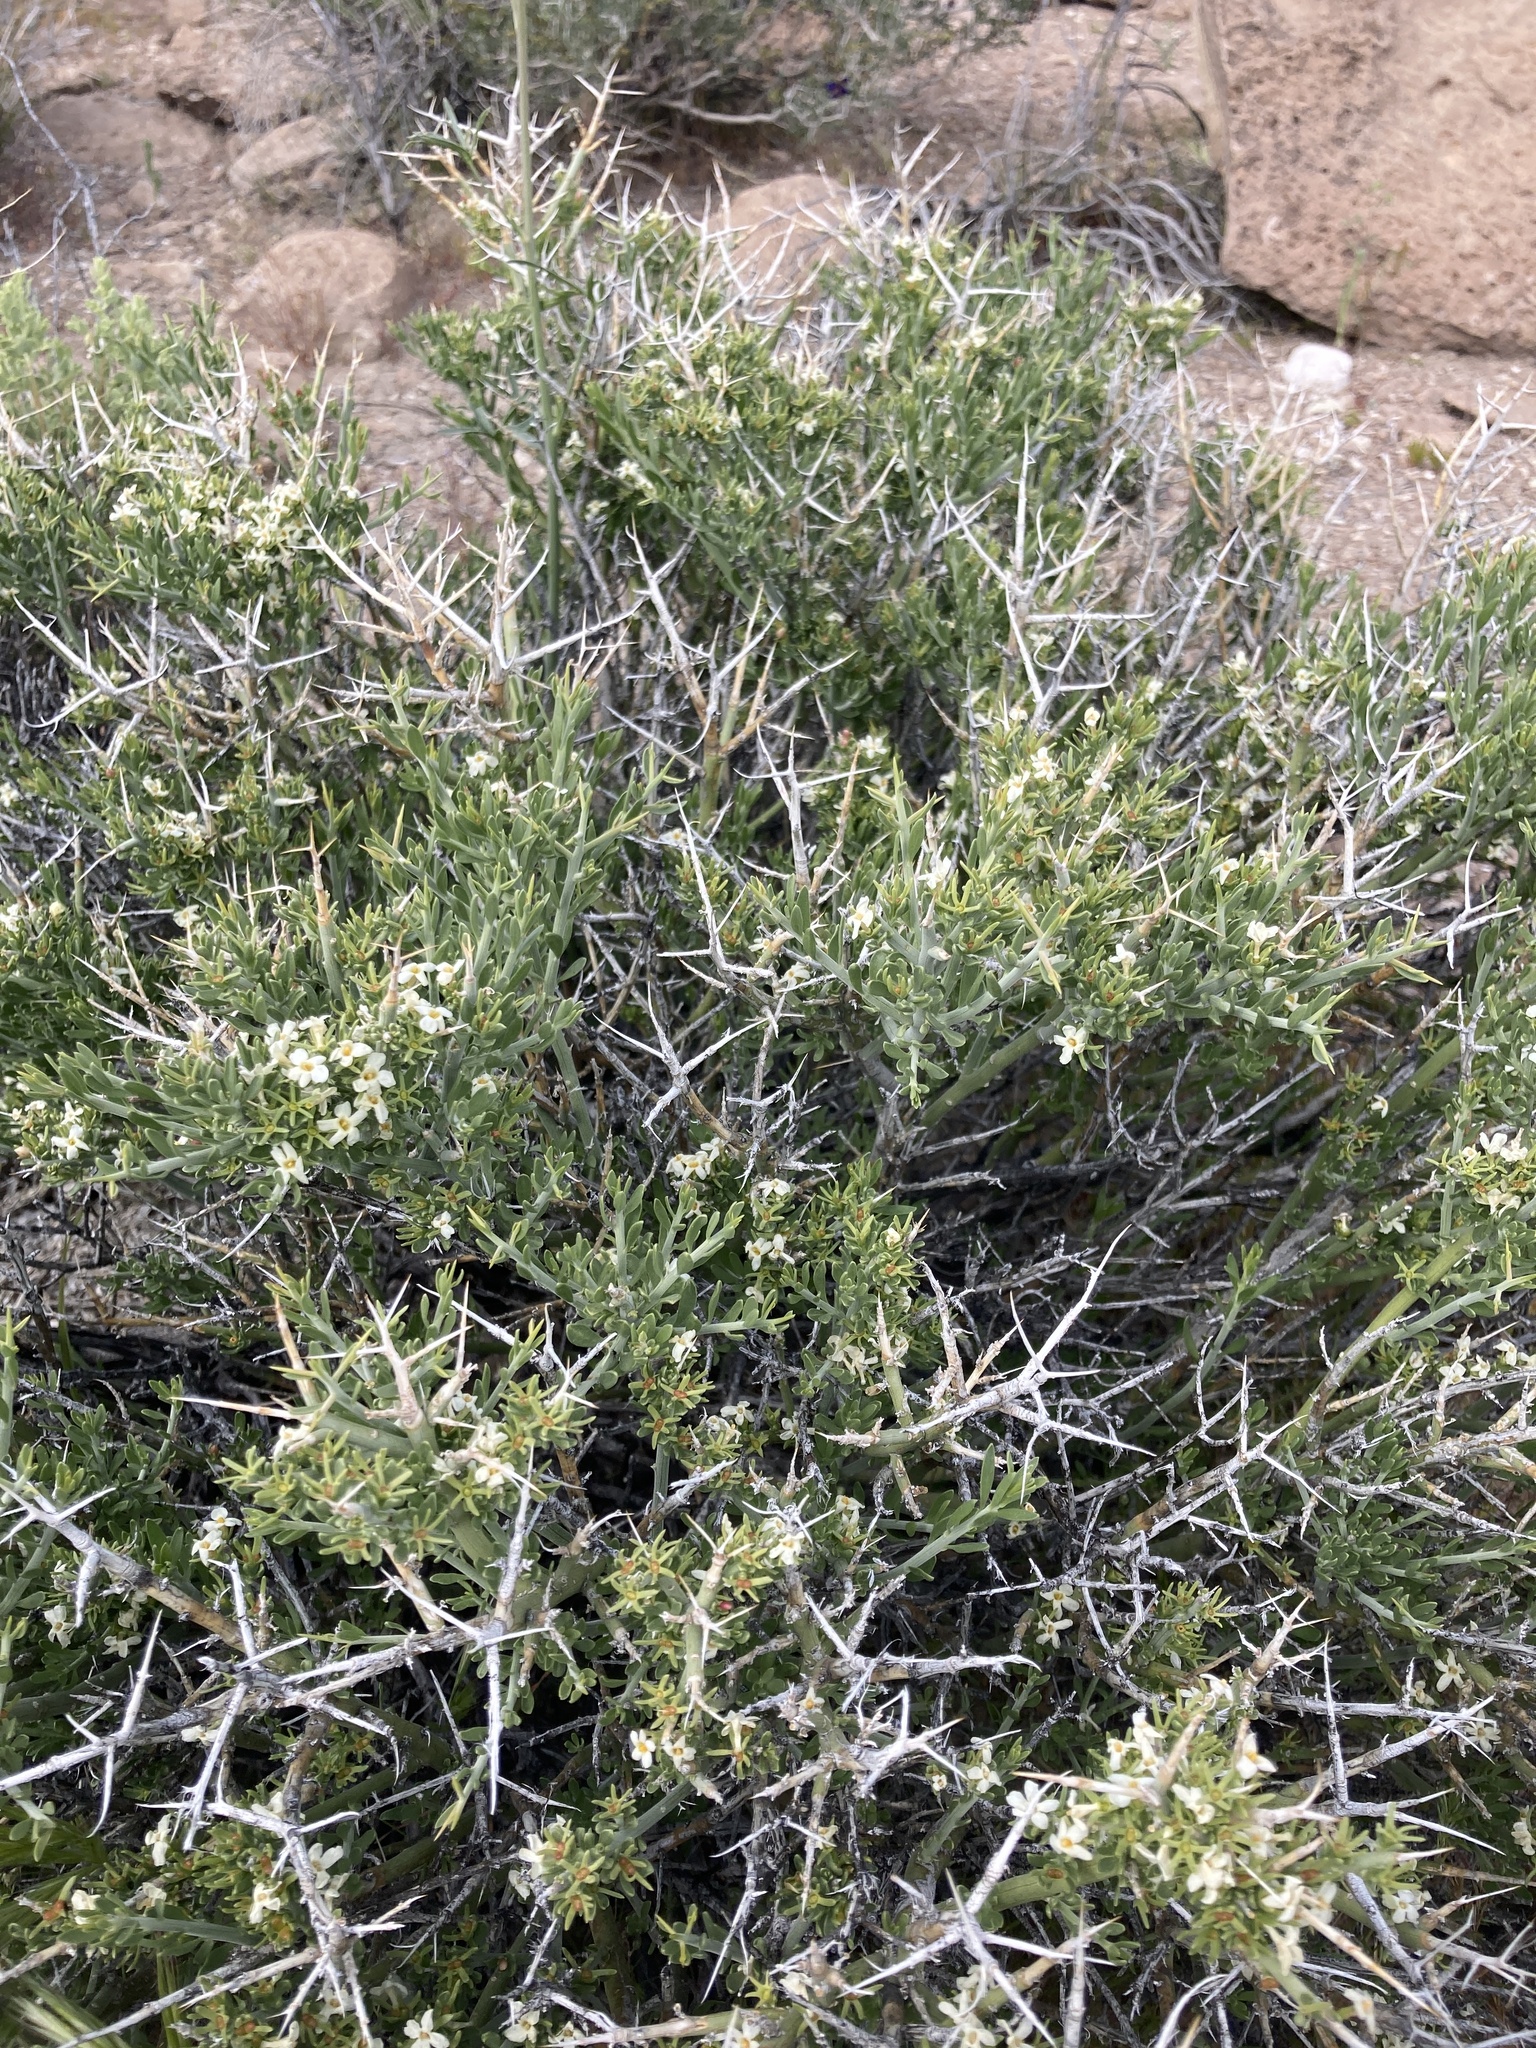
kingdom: Plantae
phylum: Tracheophyta
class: Magnoliopsida
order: Lamiales
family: Oleaceae
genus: Menodora
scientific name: Menodora spinescens
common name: Spiny menodora
